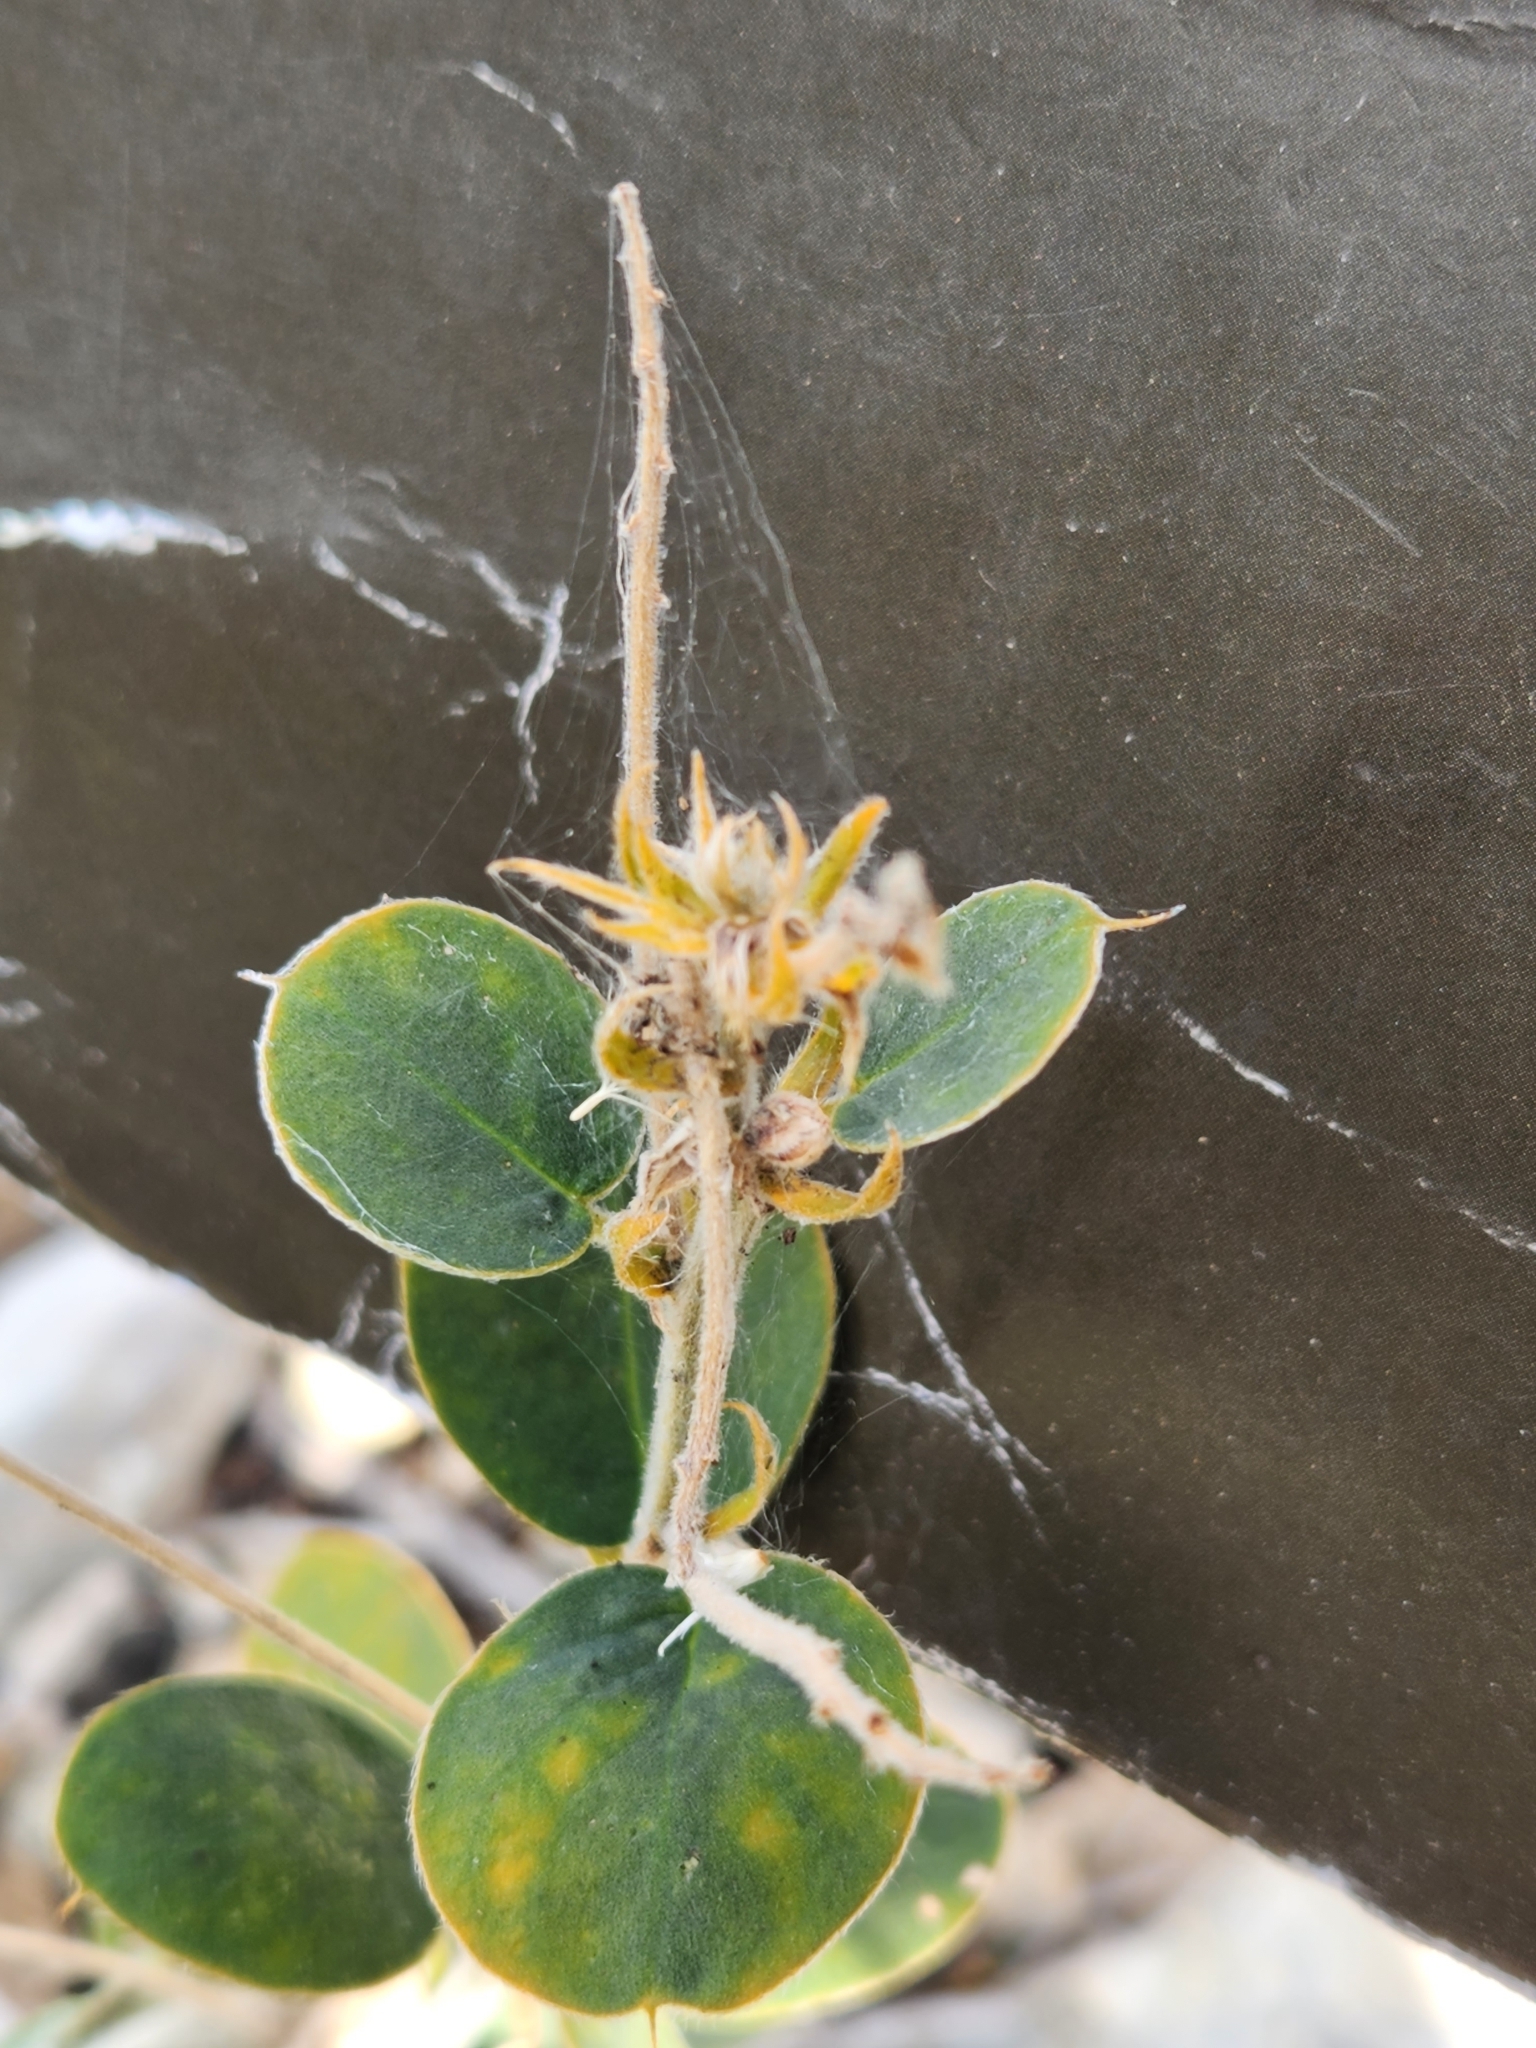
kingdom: Plantae
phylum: Tracheophyta
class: Magnoliopsida
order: Fabales
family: Fabaceae
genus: Senna
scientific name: Senna lindheimeriana
